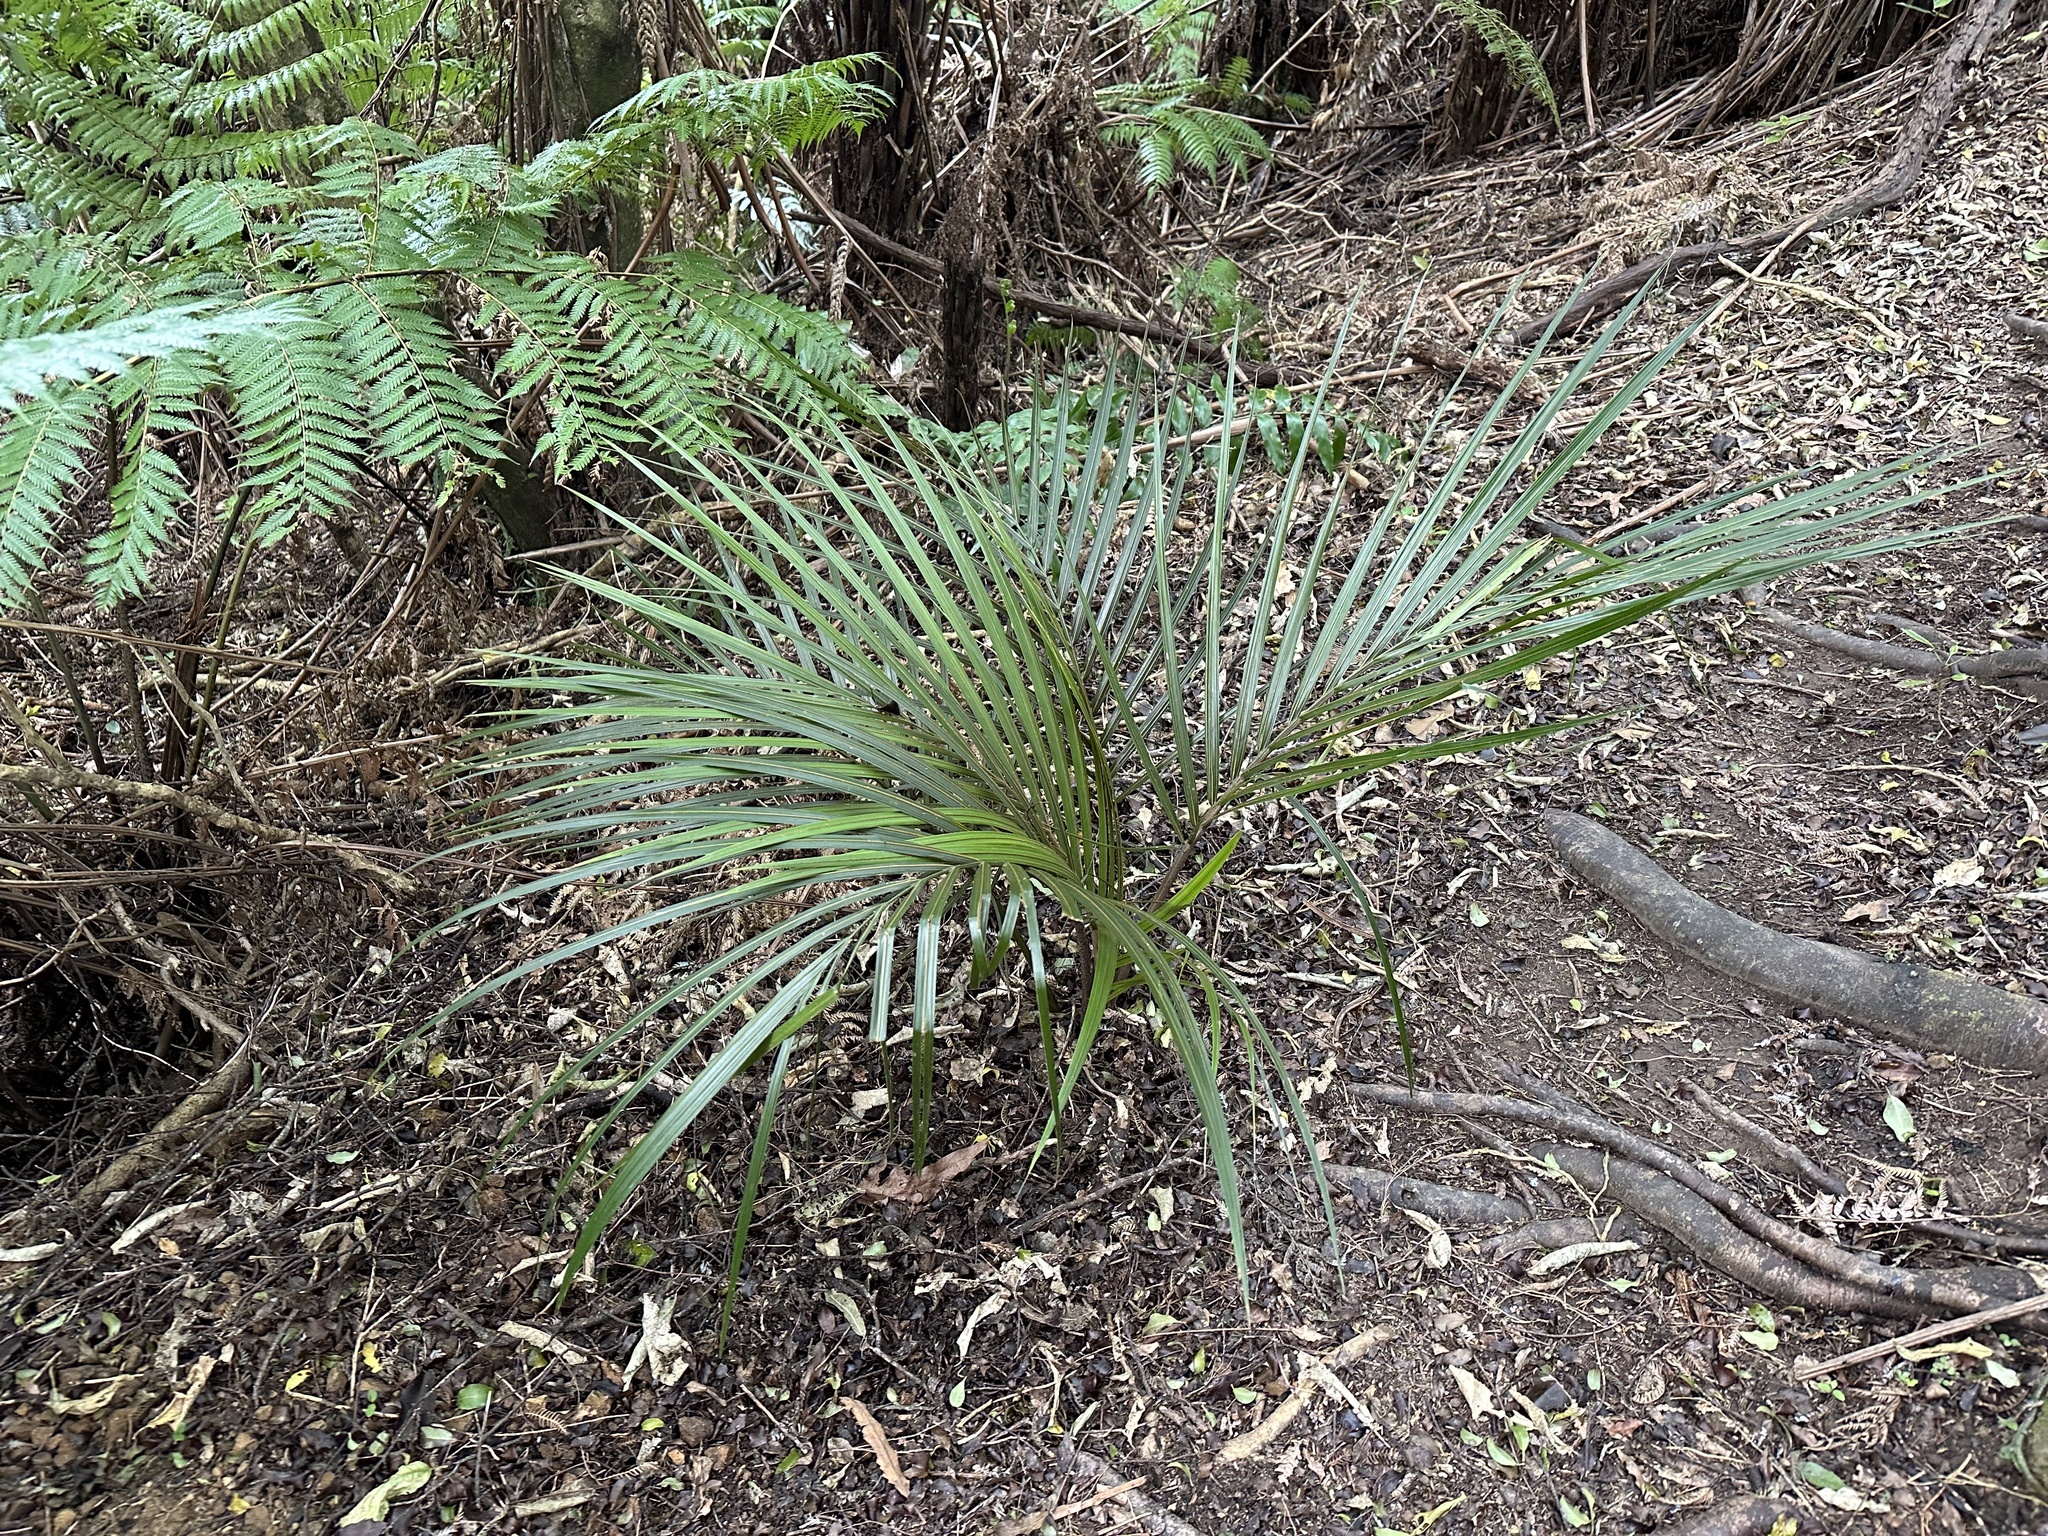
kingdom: Plantae
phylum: Tracheophyta
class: Liliopsida
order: Arecales
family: Arecaceae
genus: Rhopalostylis
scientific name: Rhopalostylis sapida
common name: Feather-duster palm
